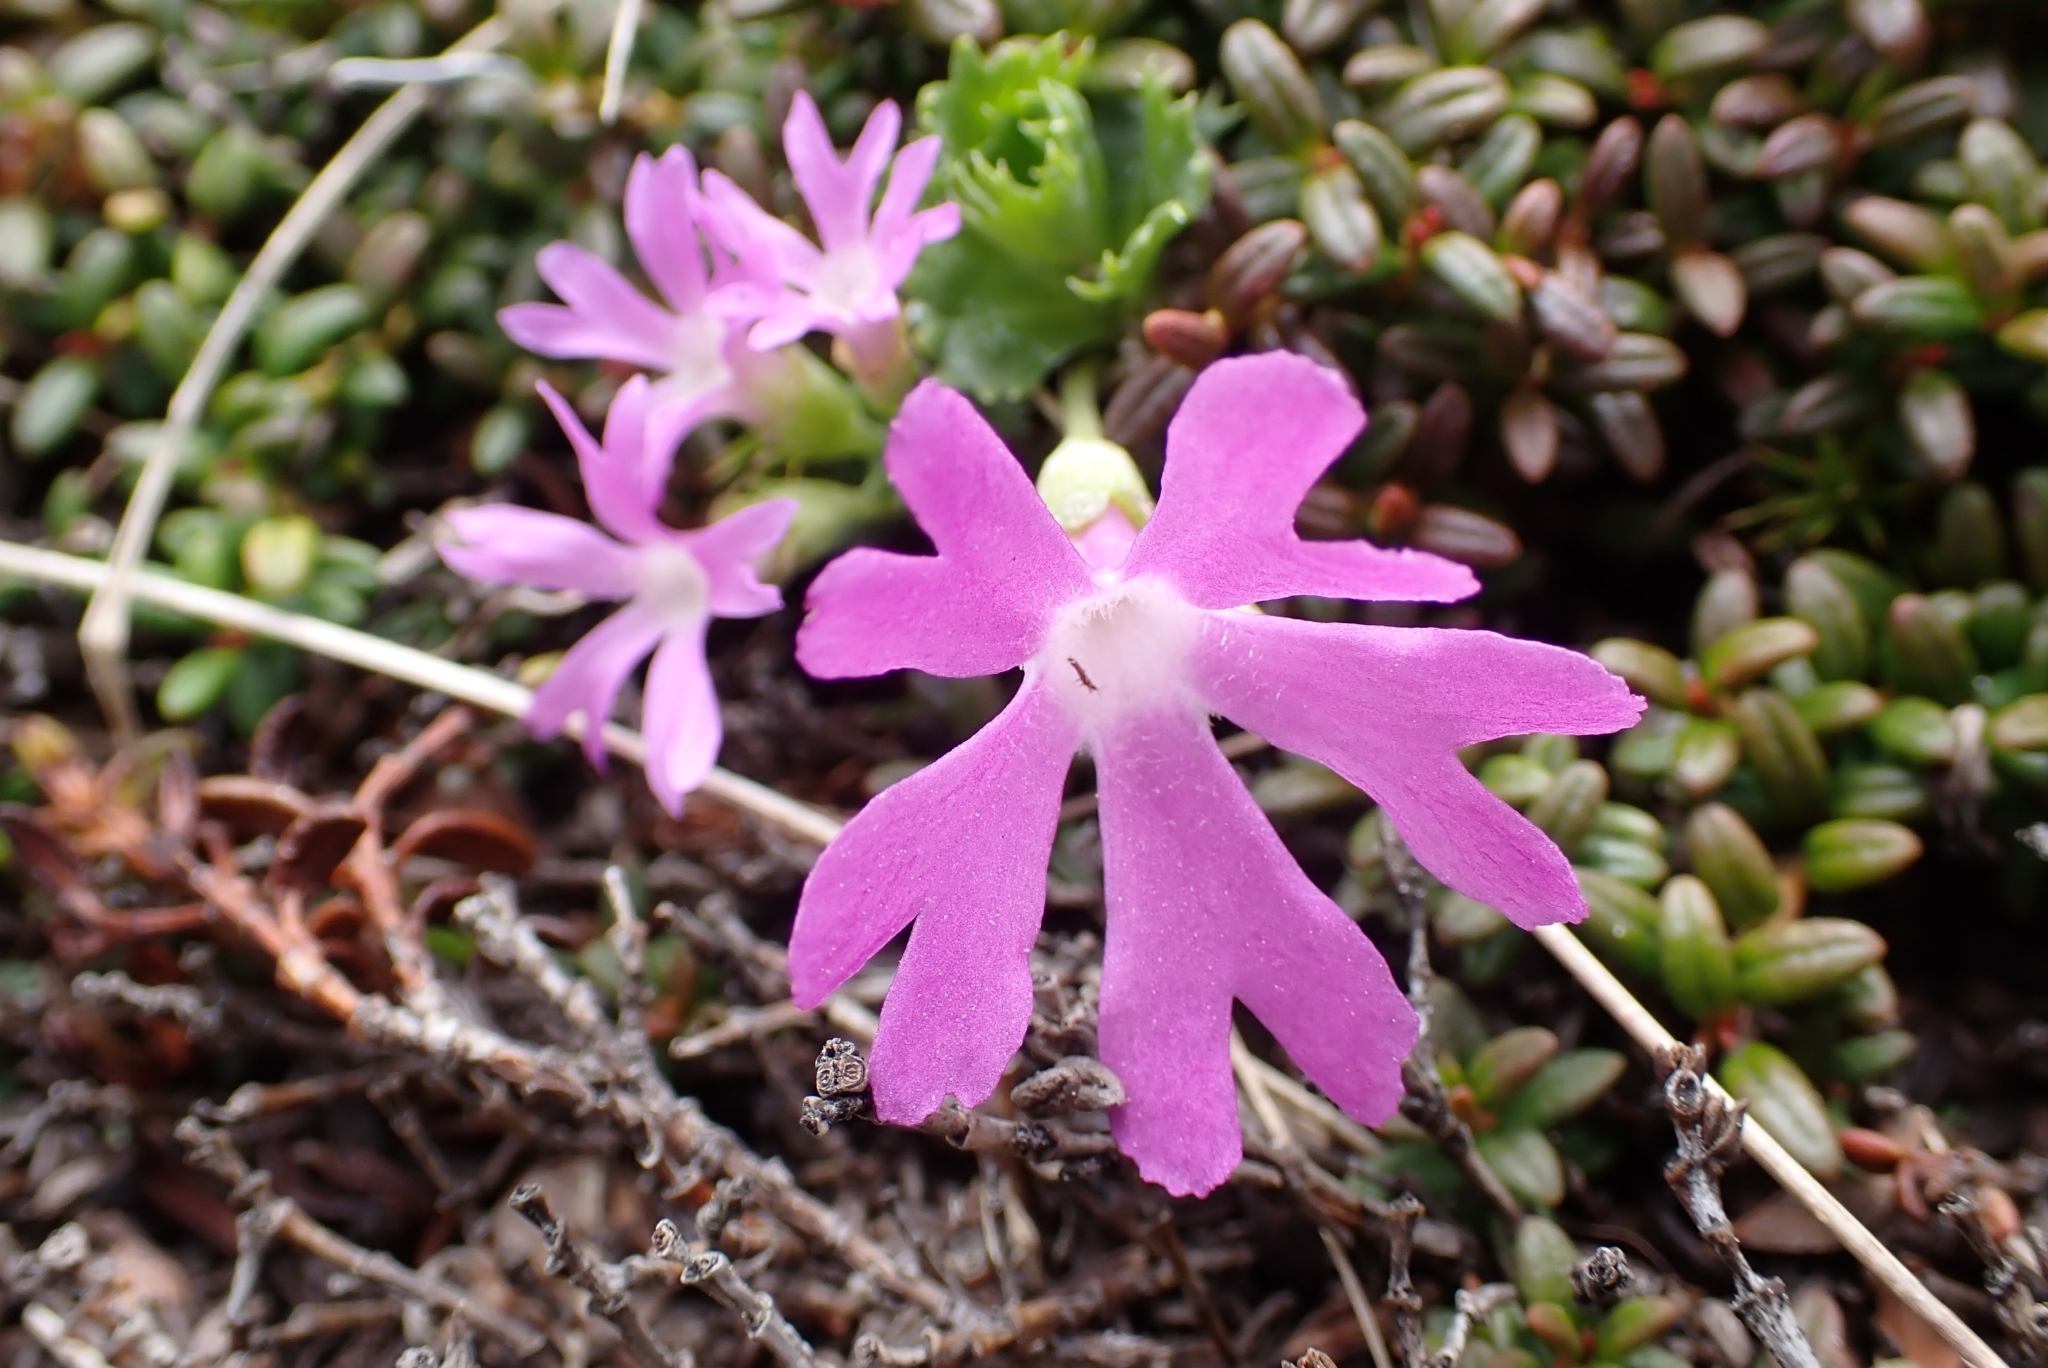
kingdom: Plantae
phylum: Tracheophyta
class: Magnoliopsida
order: Ericales
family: Primulaceae
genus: Primula
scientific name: Primula minima
